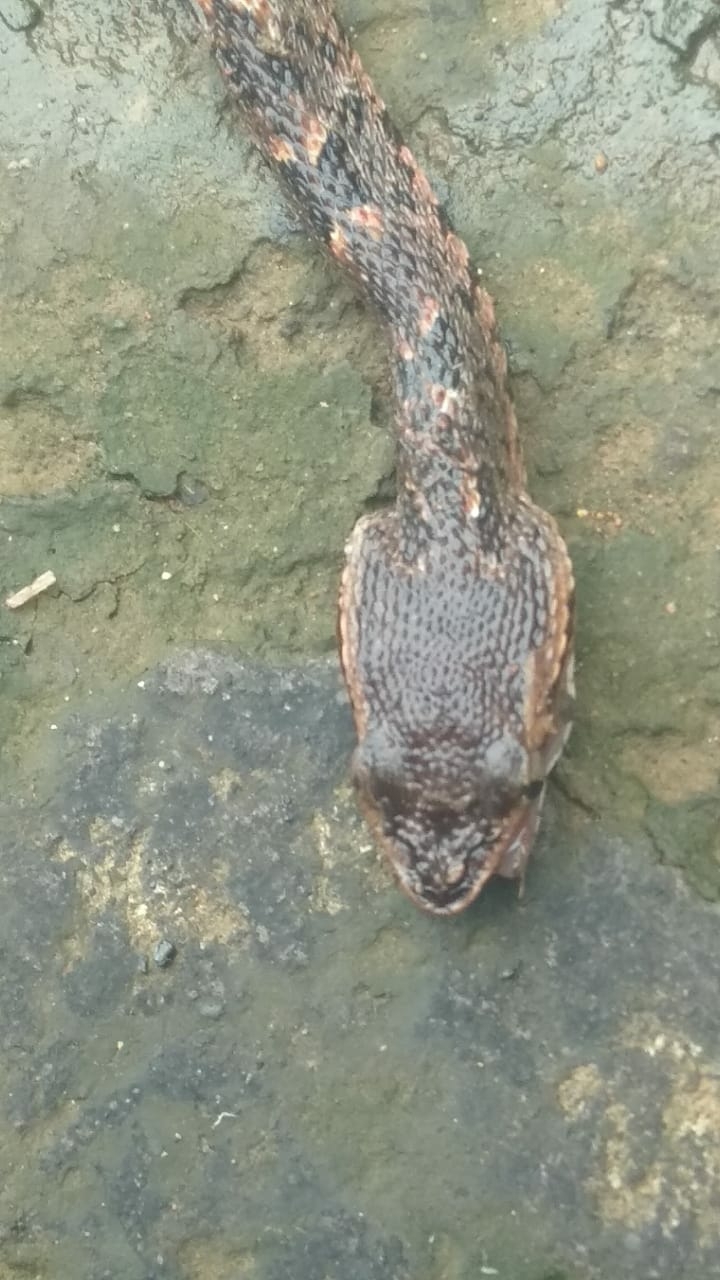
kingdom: Animalia
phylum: Chordata
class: Squamata
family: Viperidae
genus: Bothrops
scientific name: Bothrops asper
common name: Terciopelo
